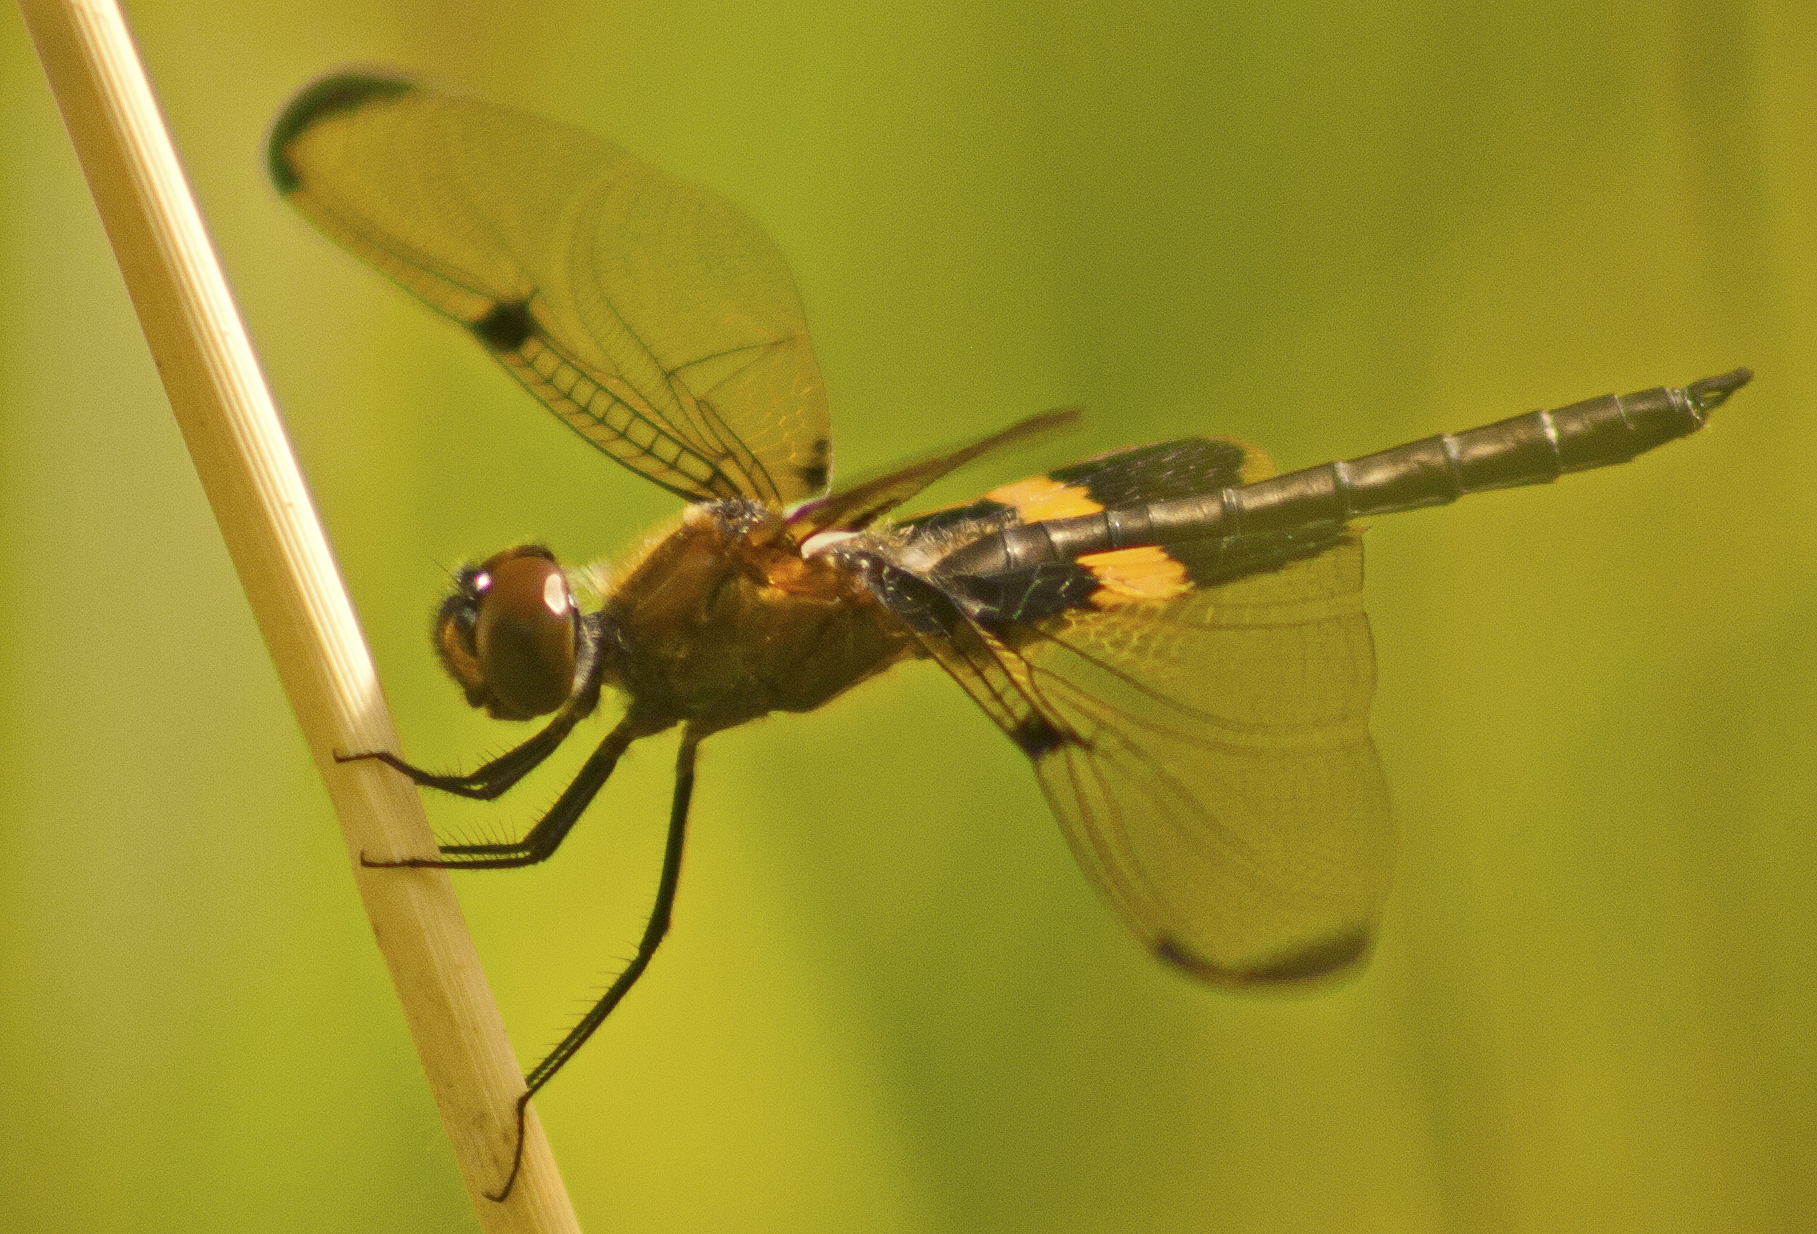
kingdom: Animalia
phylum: Arthropoda
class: Insecta
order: Odonata
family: Libellulidae
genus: Rhyothemis
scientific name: Rhyothemis phyllis
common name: Yellow-barred flutterer
